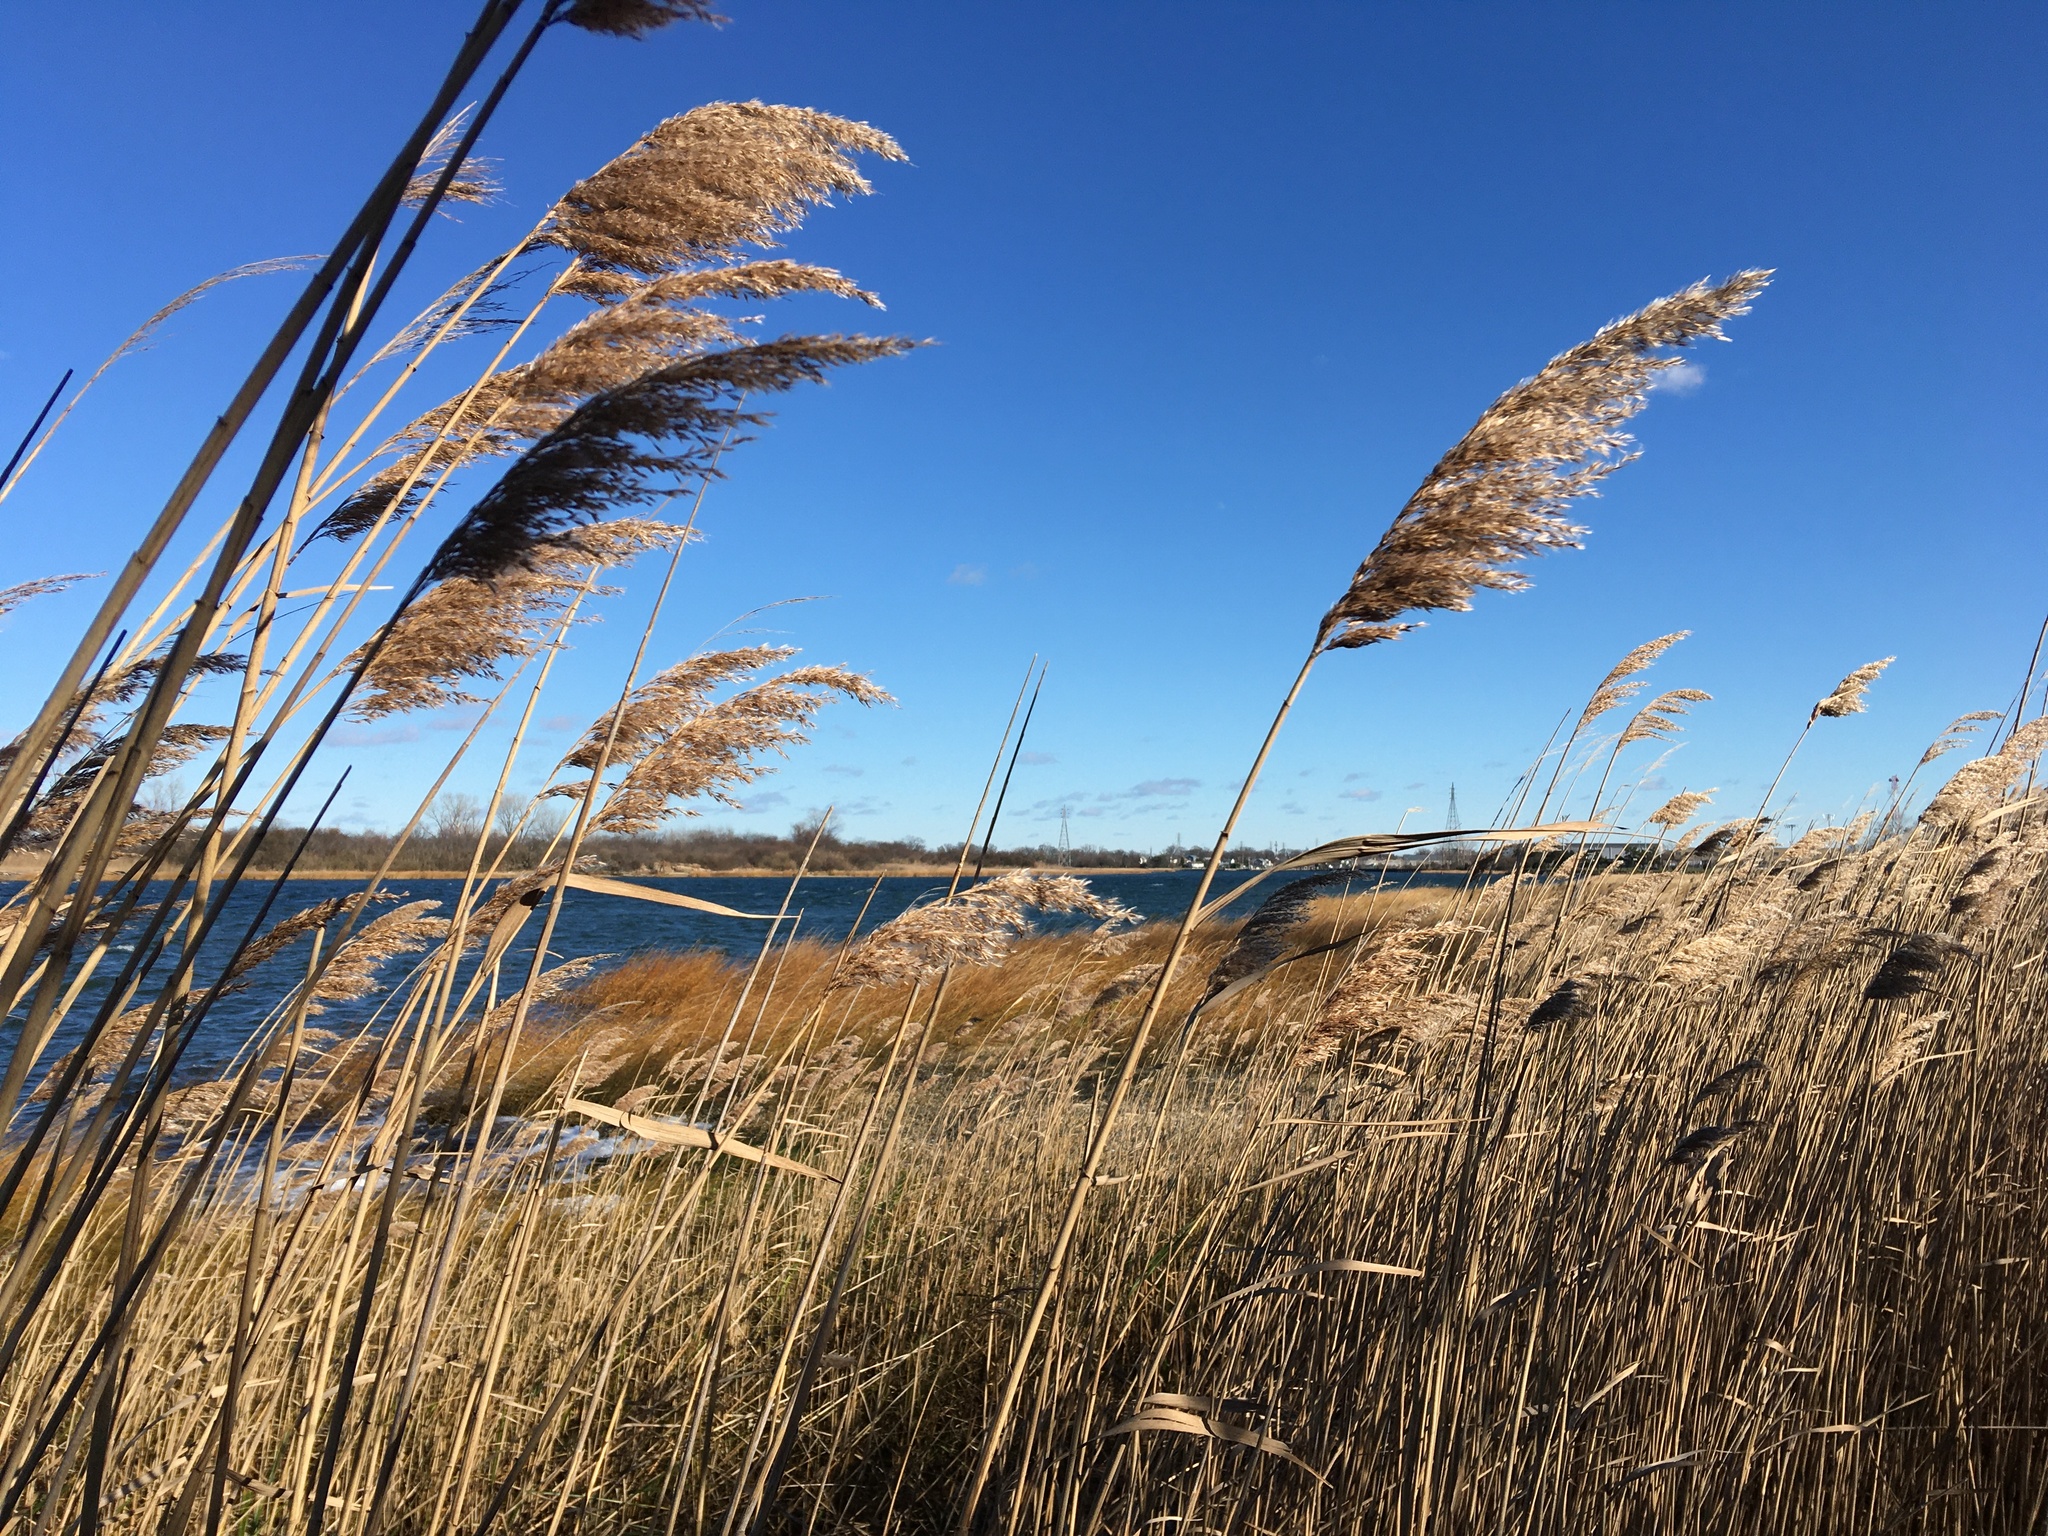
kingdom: Plantae
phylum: Tracheophyta
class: Liliopsida
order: Poales
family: Poaceae
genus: Phragmites
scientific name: Phragmites australis
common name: Common reed
